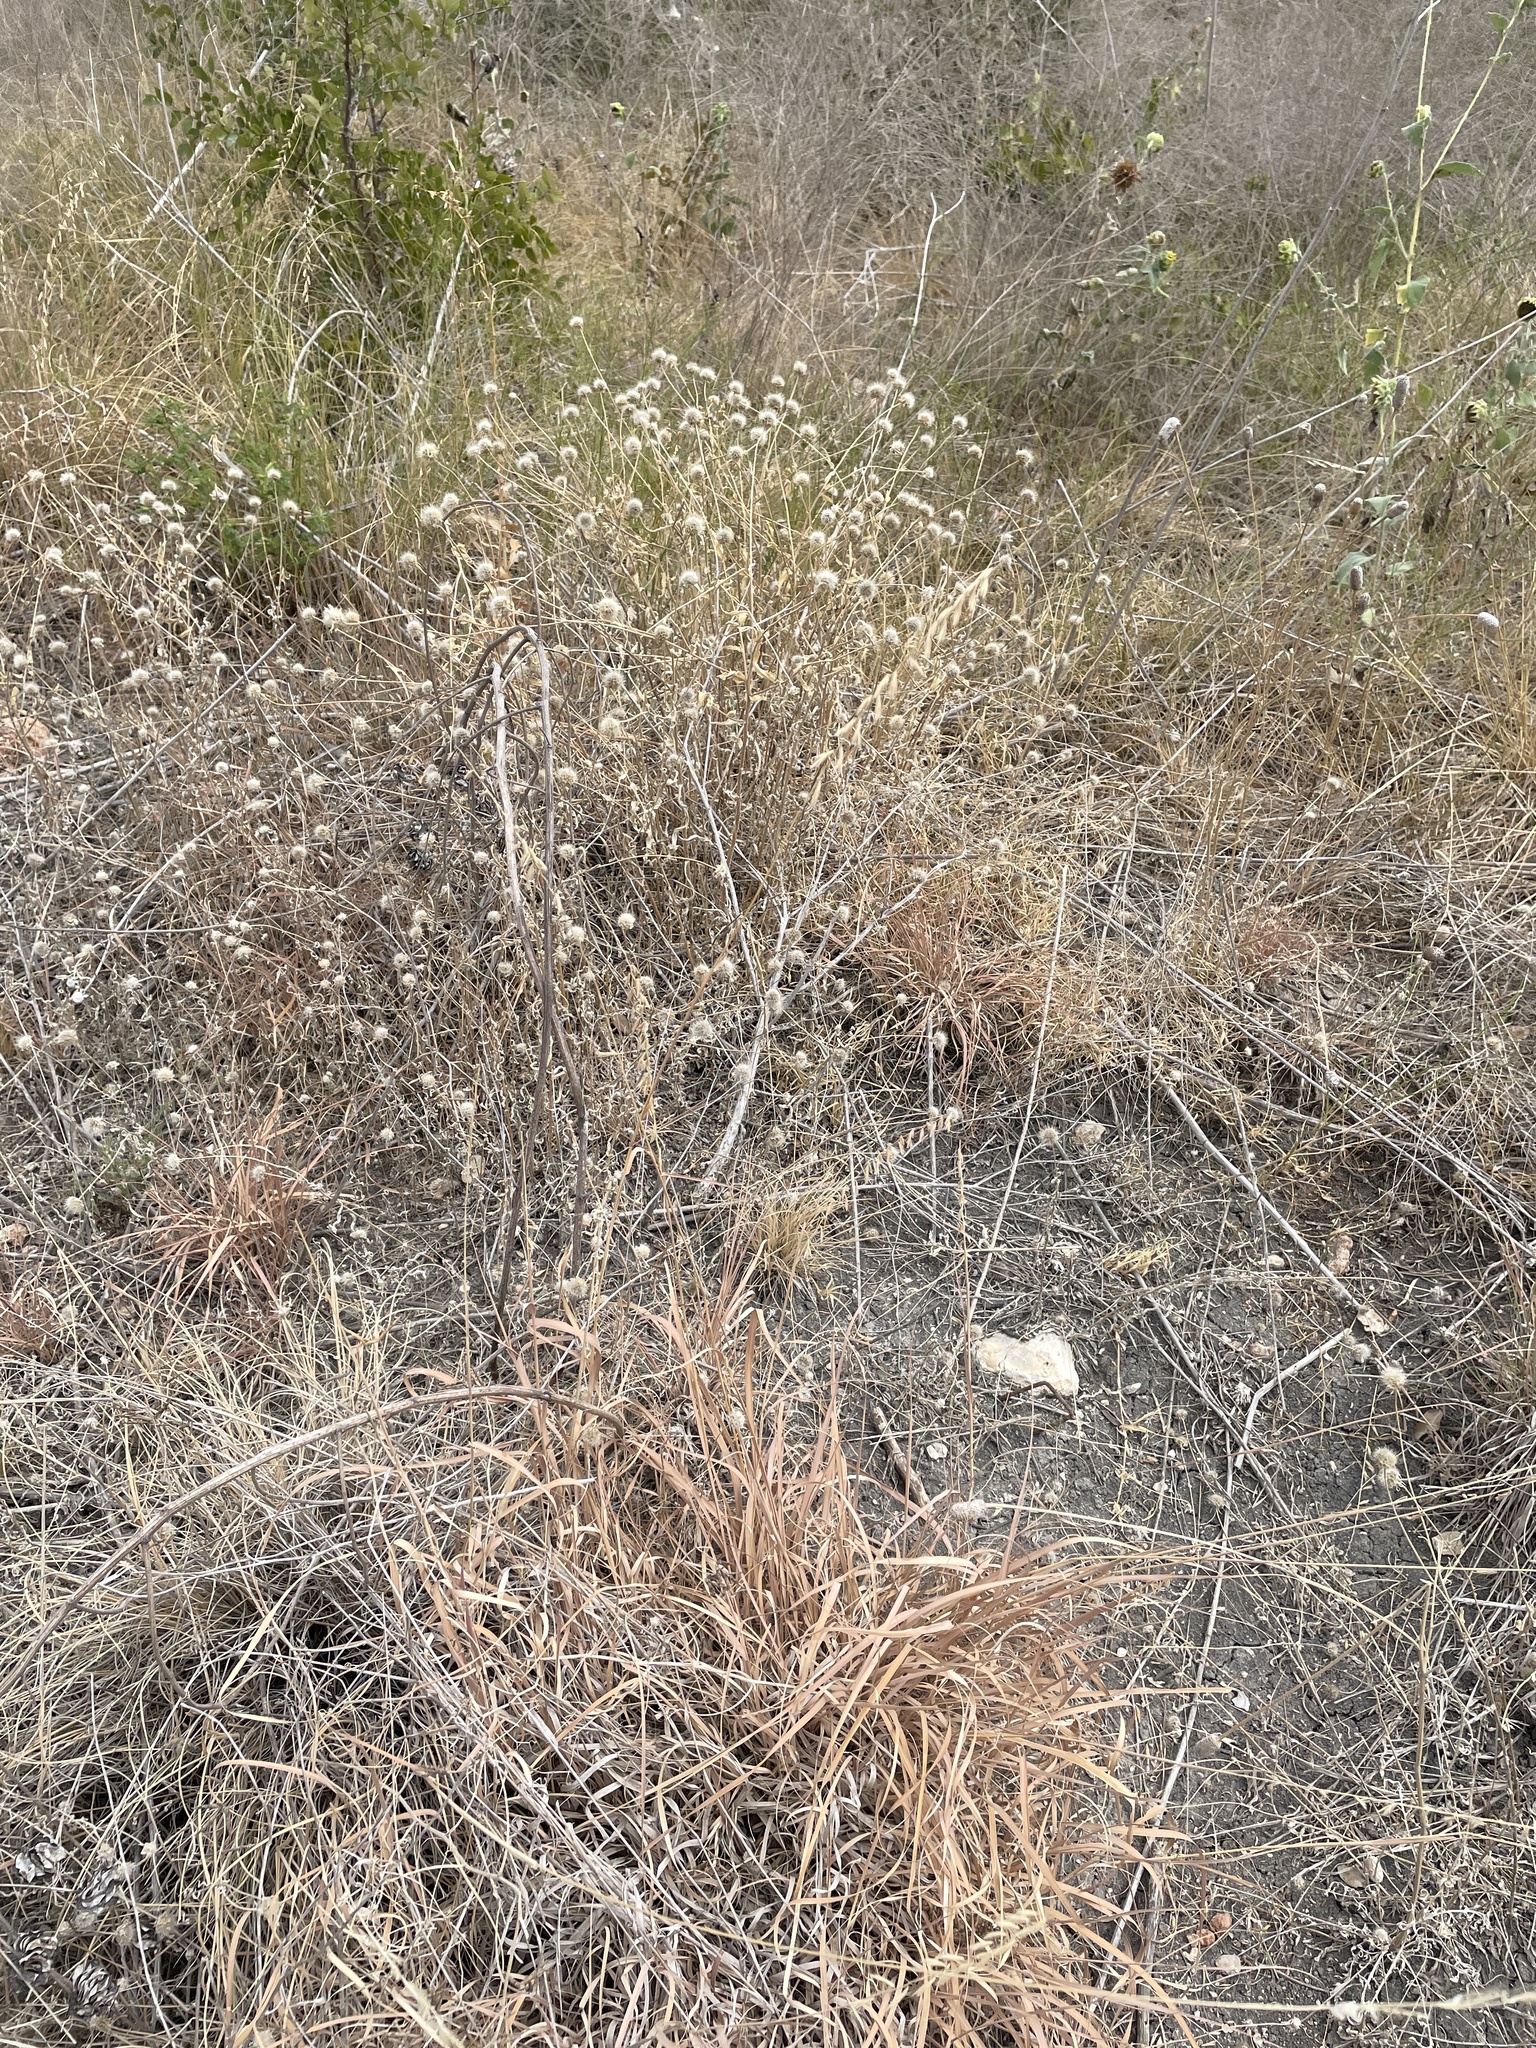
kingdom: Plantae
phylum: Tracheophyta
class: Liliopsida
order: Poales
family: Poaceae
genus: Bouteloua
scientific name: Bouteloua curtipendula
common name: Side-oats grama
